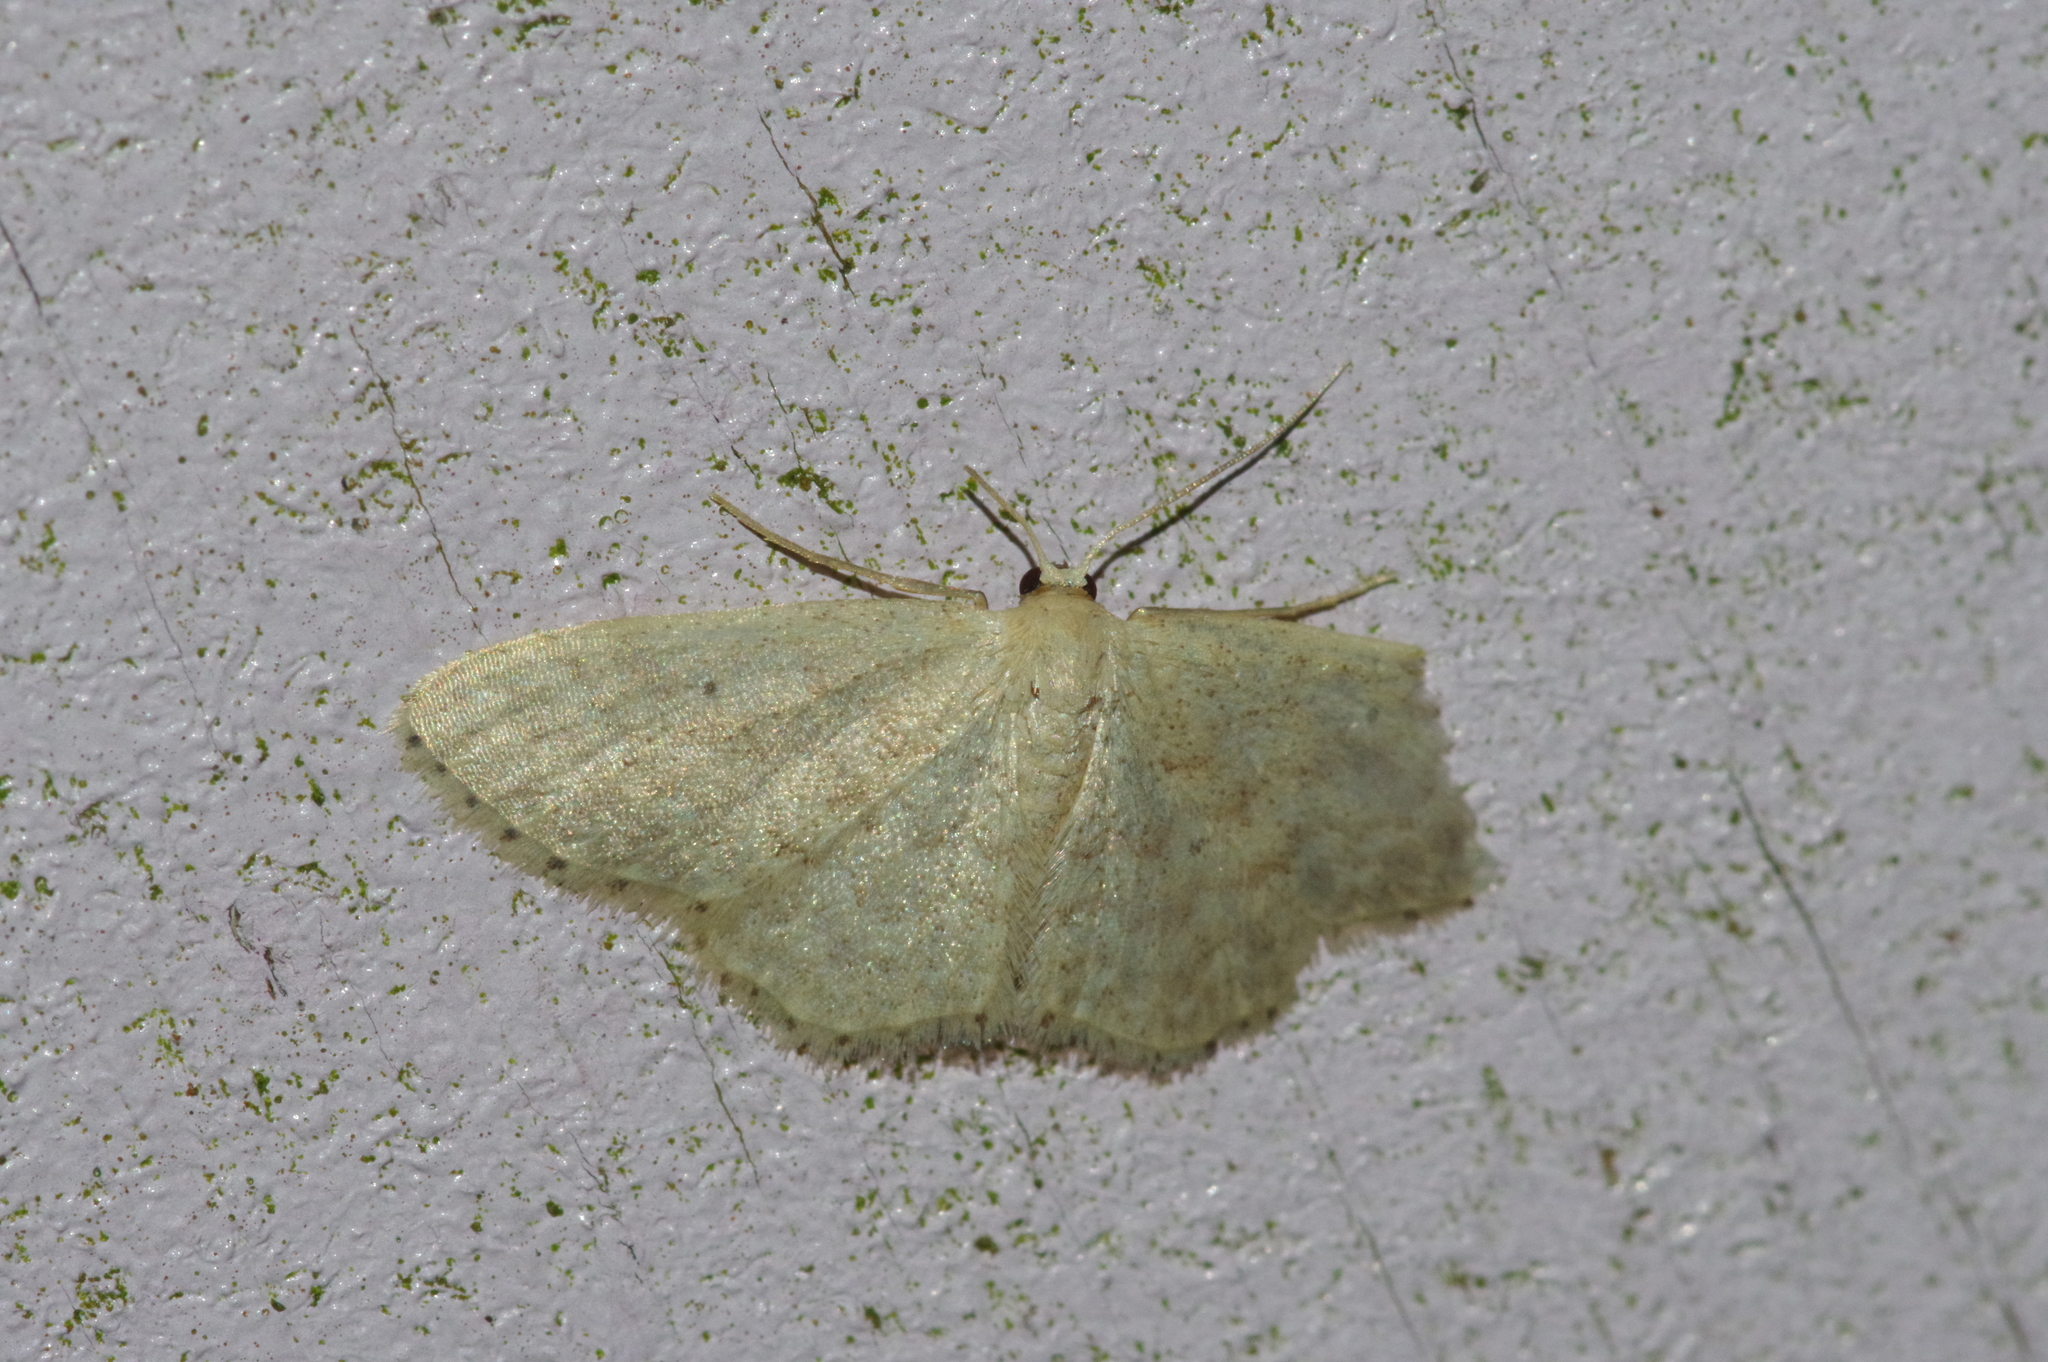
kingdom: Animalia
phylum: Arthropoda
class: Insecta
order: Lepidoptera
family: Geometridae
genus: Idaea
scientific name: Idaea neovalida
